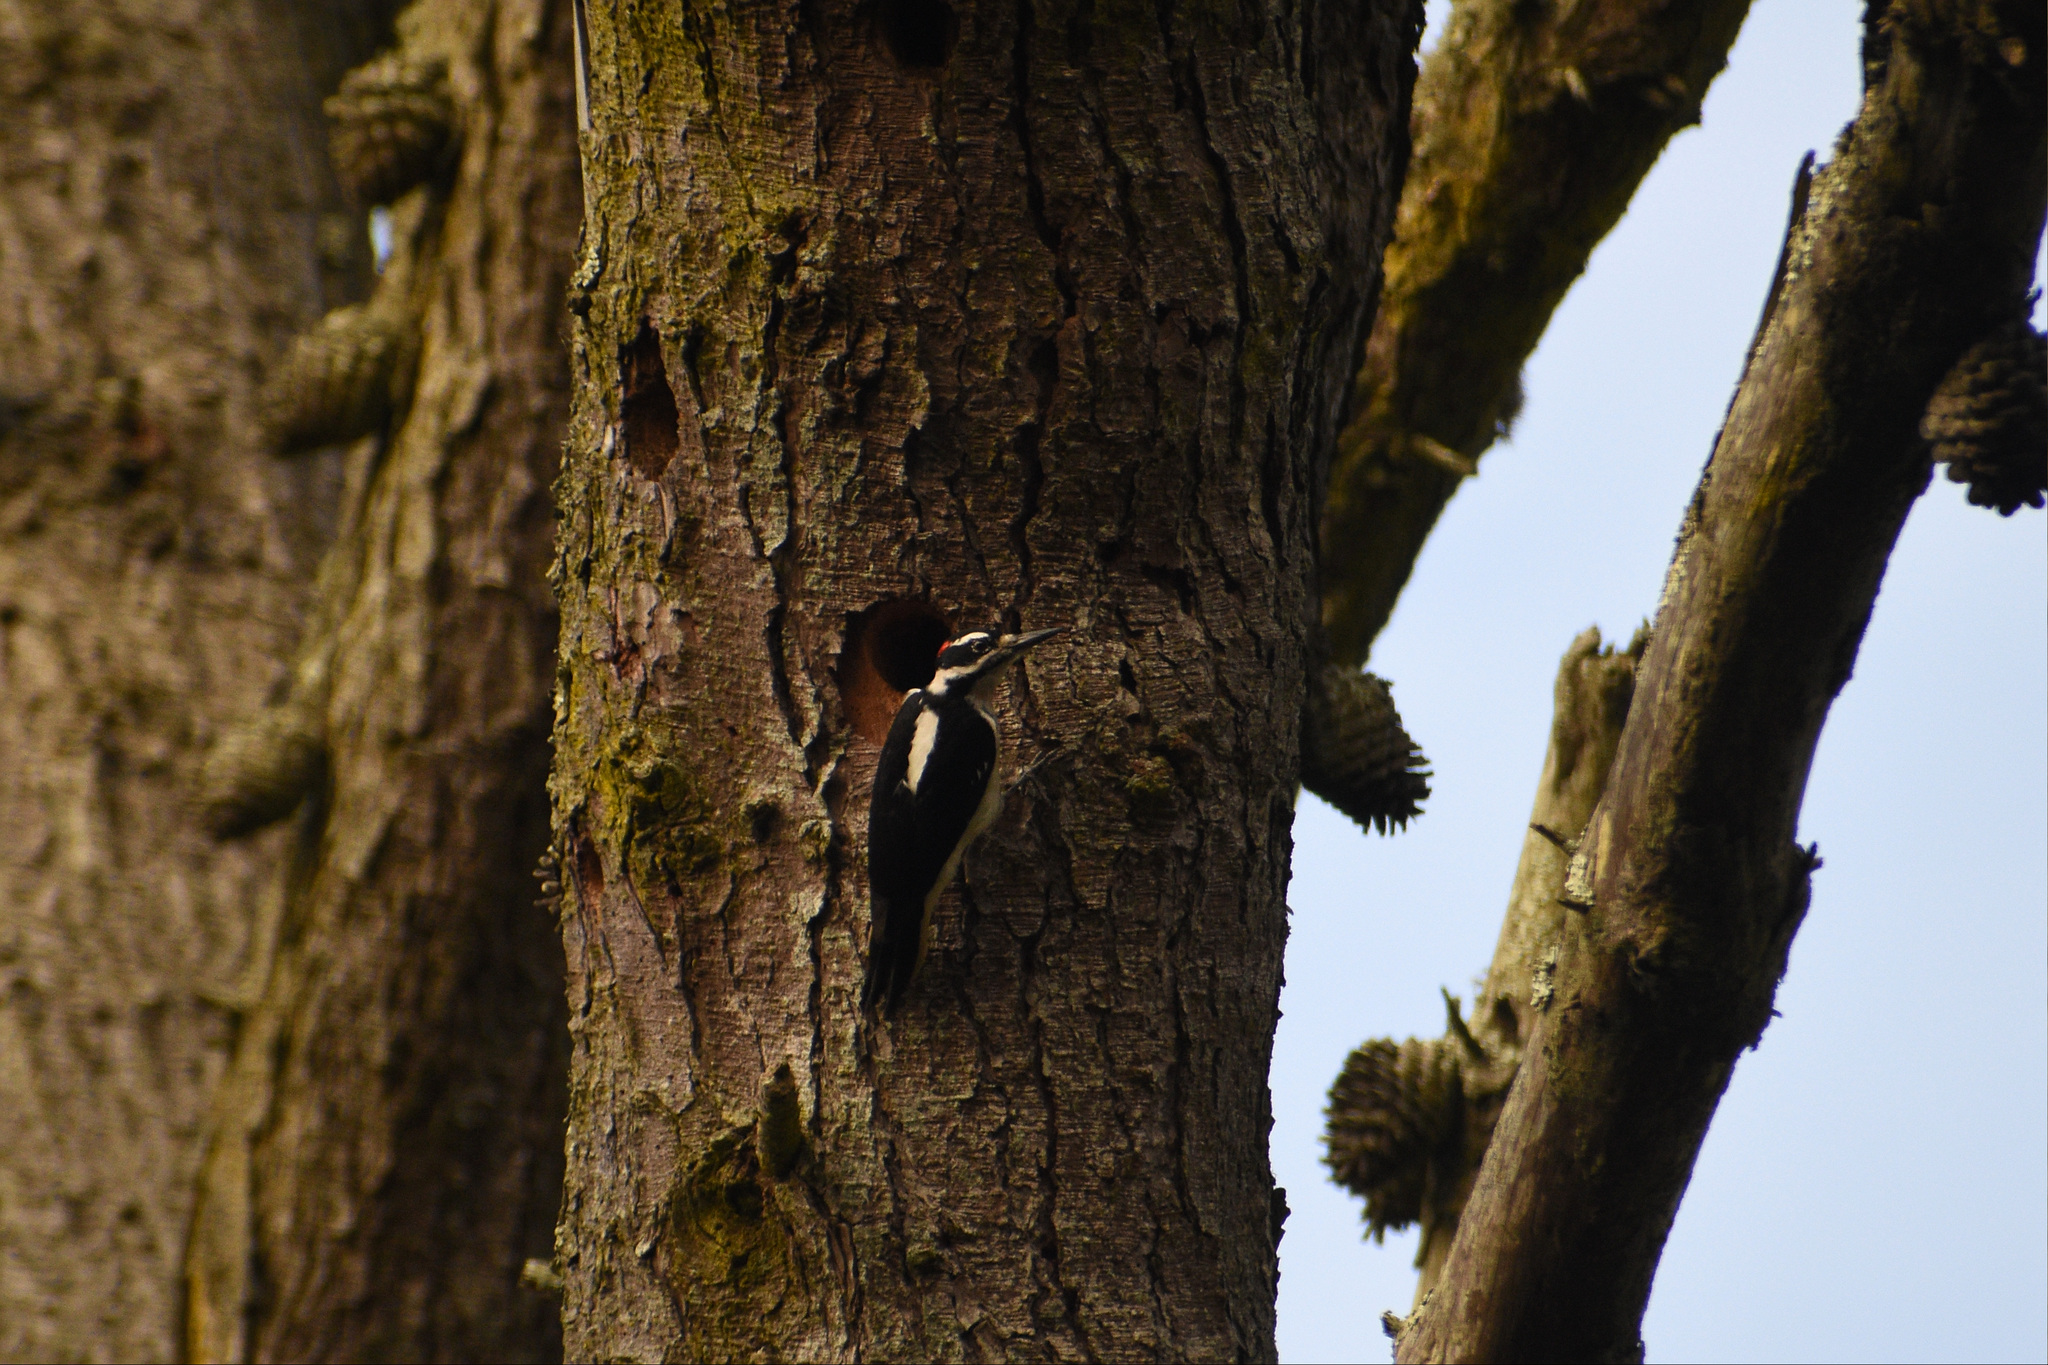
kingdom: Animalia
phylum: Chordata
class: Aves
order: Piciformes
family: Picidae
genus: Leuconotopicus
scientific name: Leuconotopicus villosus
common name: Hairy woodpecker
